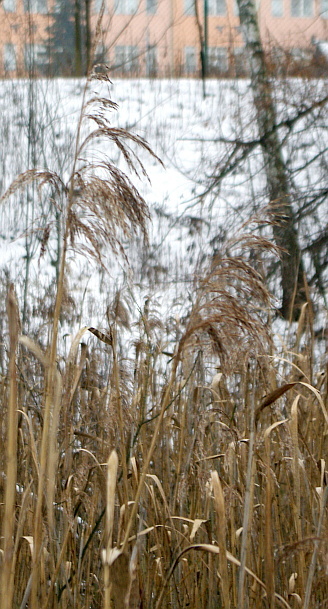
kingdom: Plantae
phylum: Tracheophyta
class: Liliopsida
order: Poales
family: Poaceae
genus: Phragmites
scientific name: Phragmites australis
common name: Common reed
